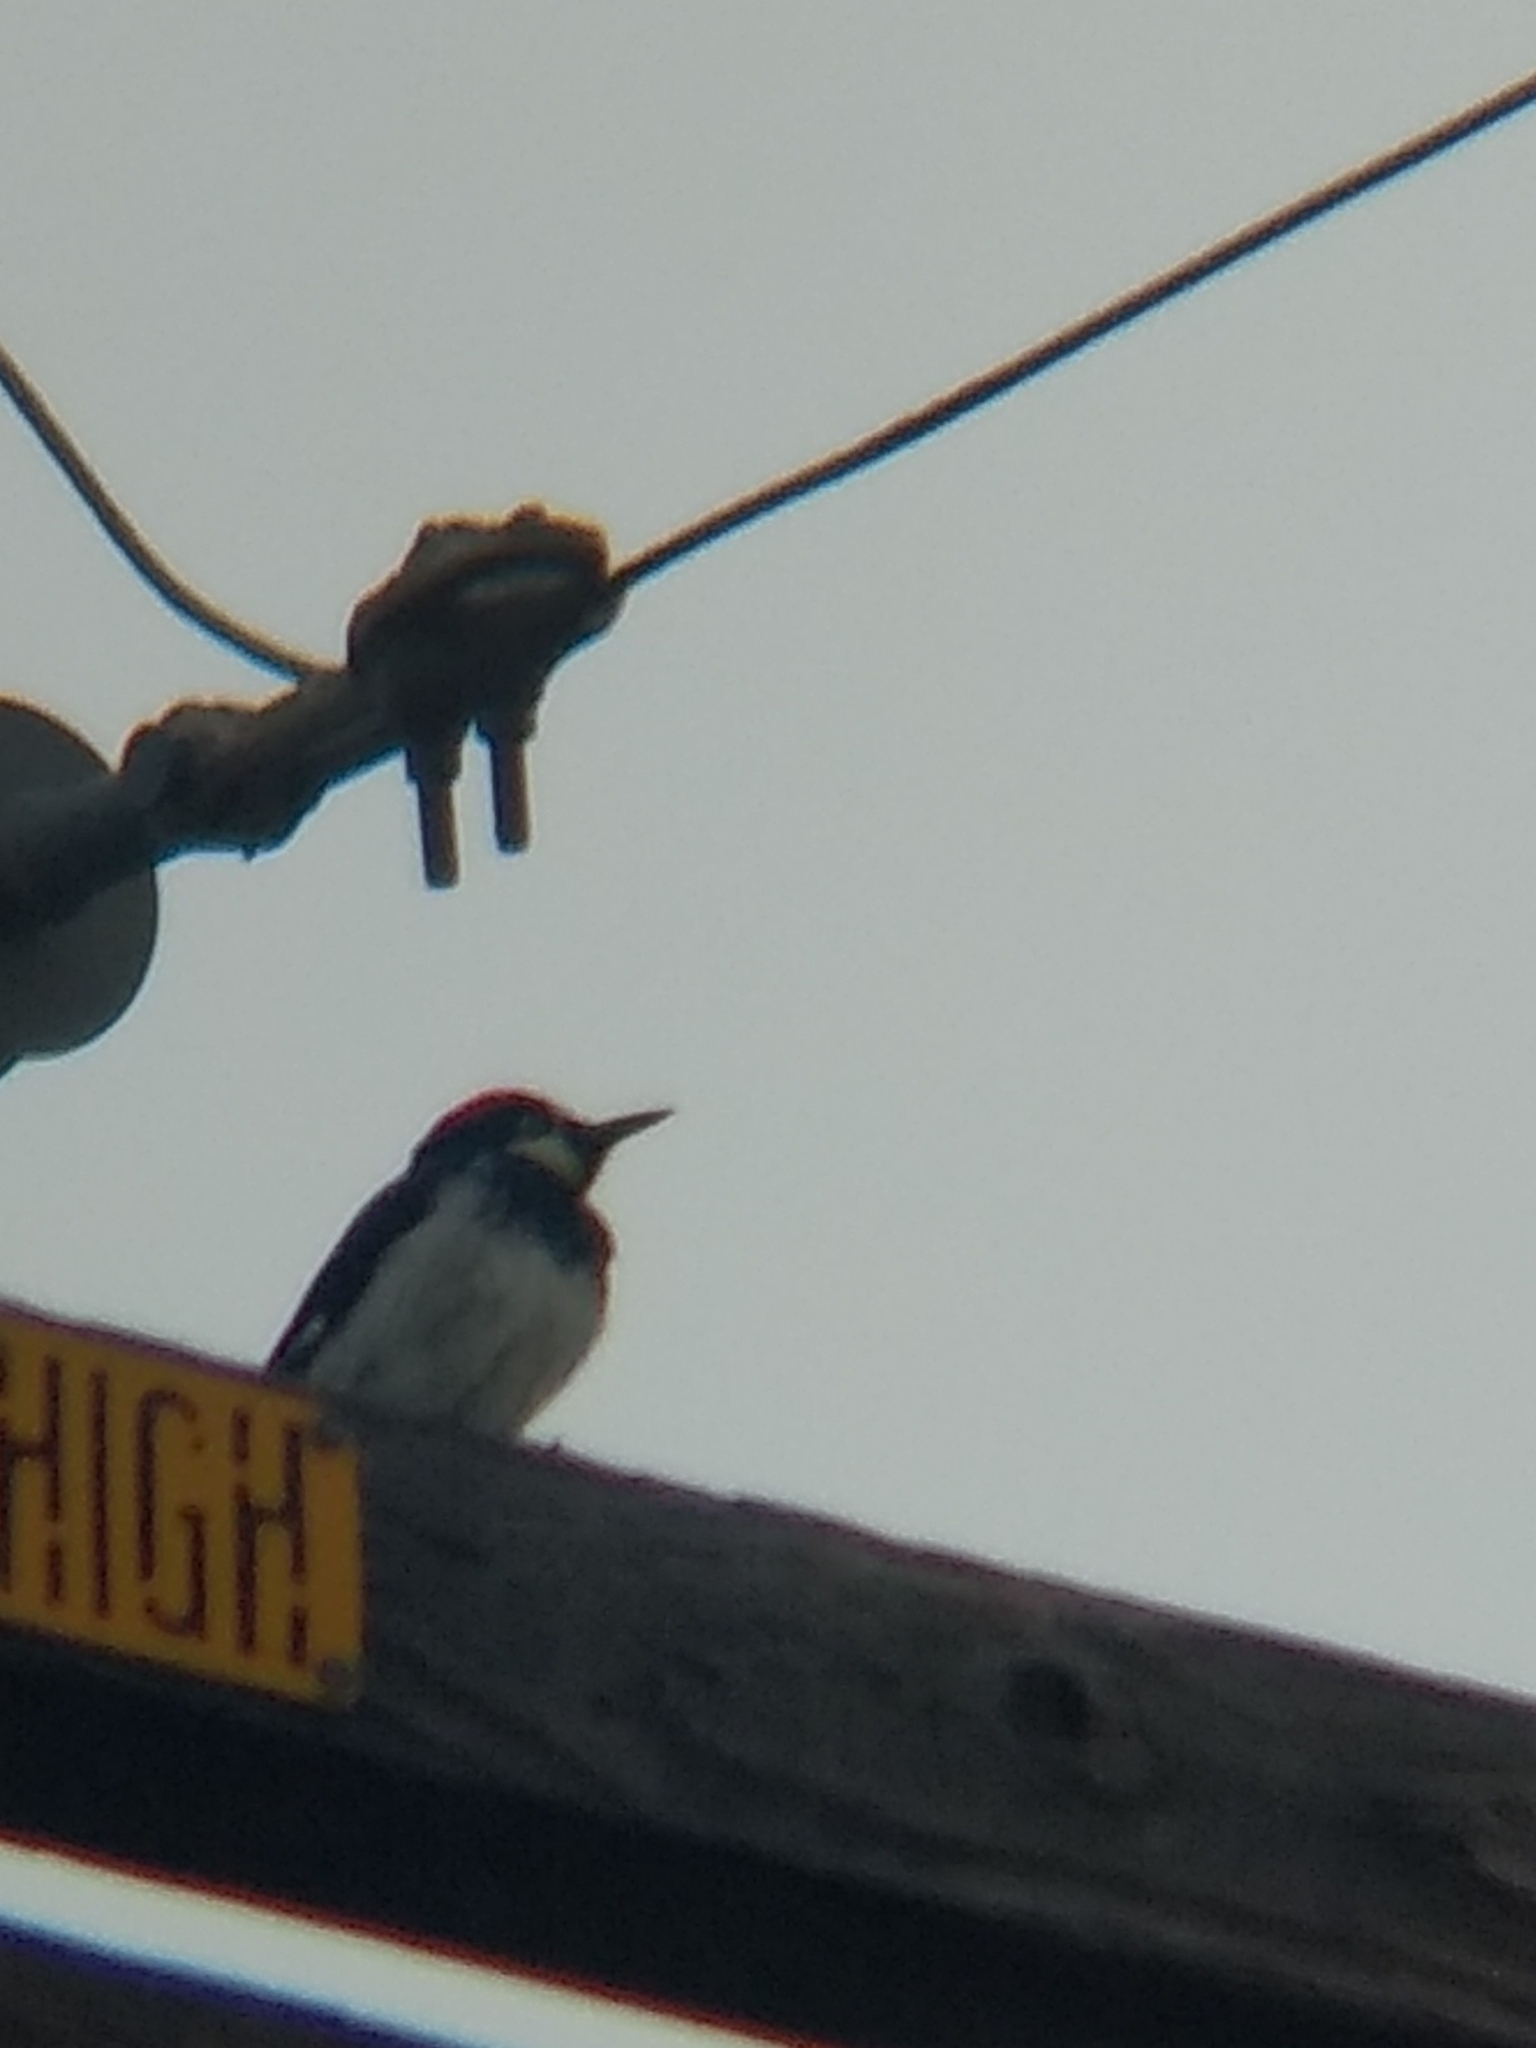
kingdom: Animalia
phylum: Chordata
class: Aves
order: Piciformes
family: Picidae
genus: Melanerpes
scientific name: Melanerpes formicivorus
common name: Acorn woodpecker
